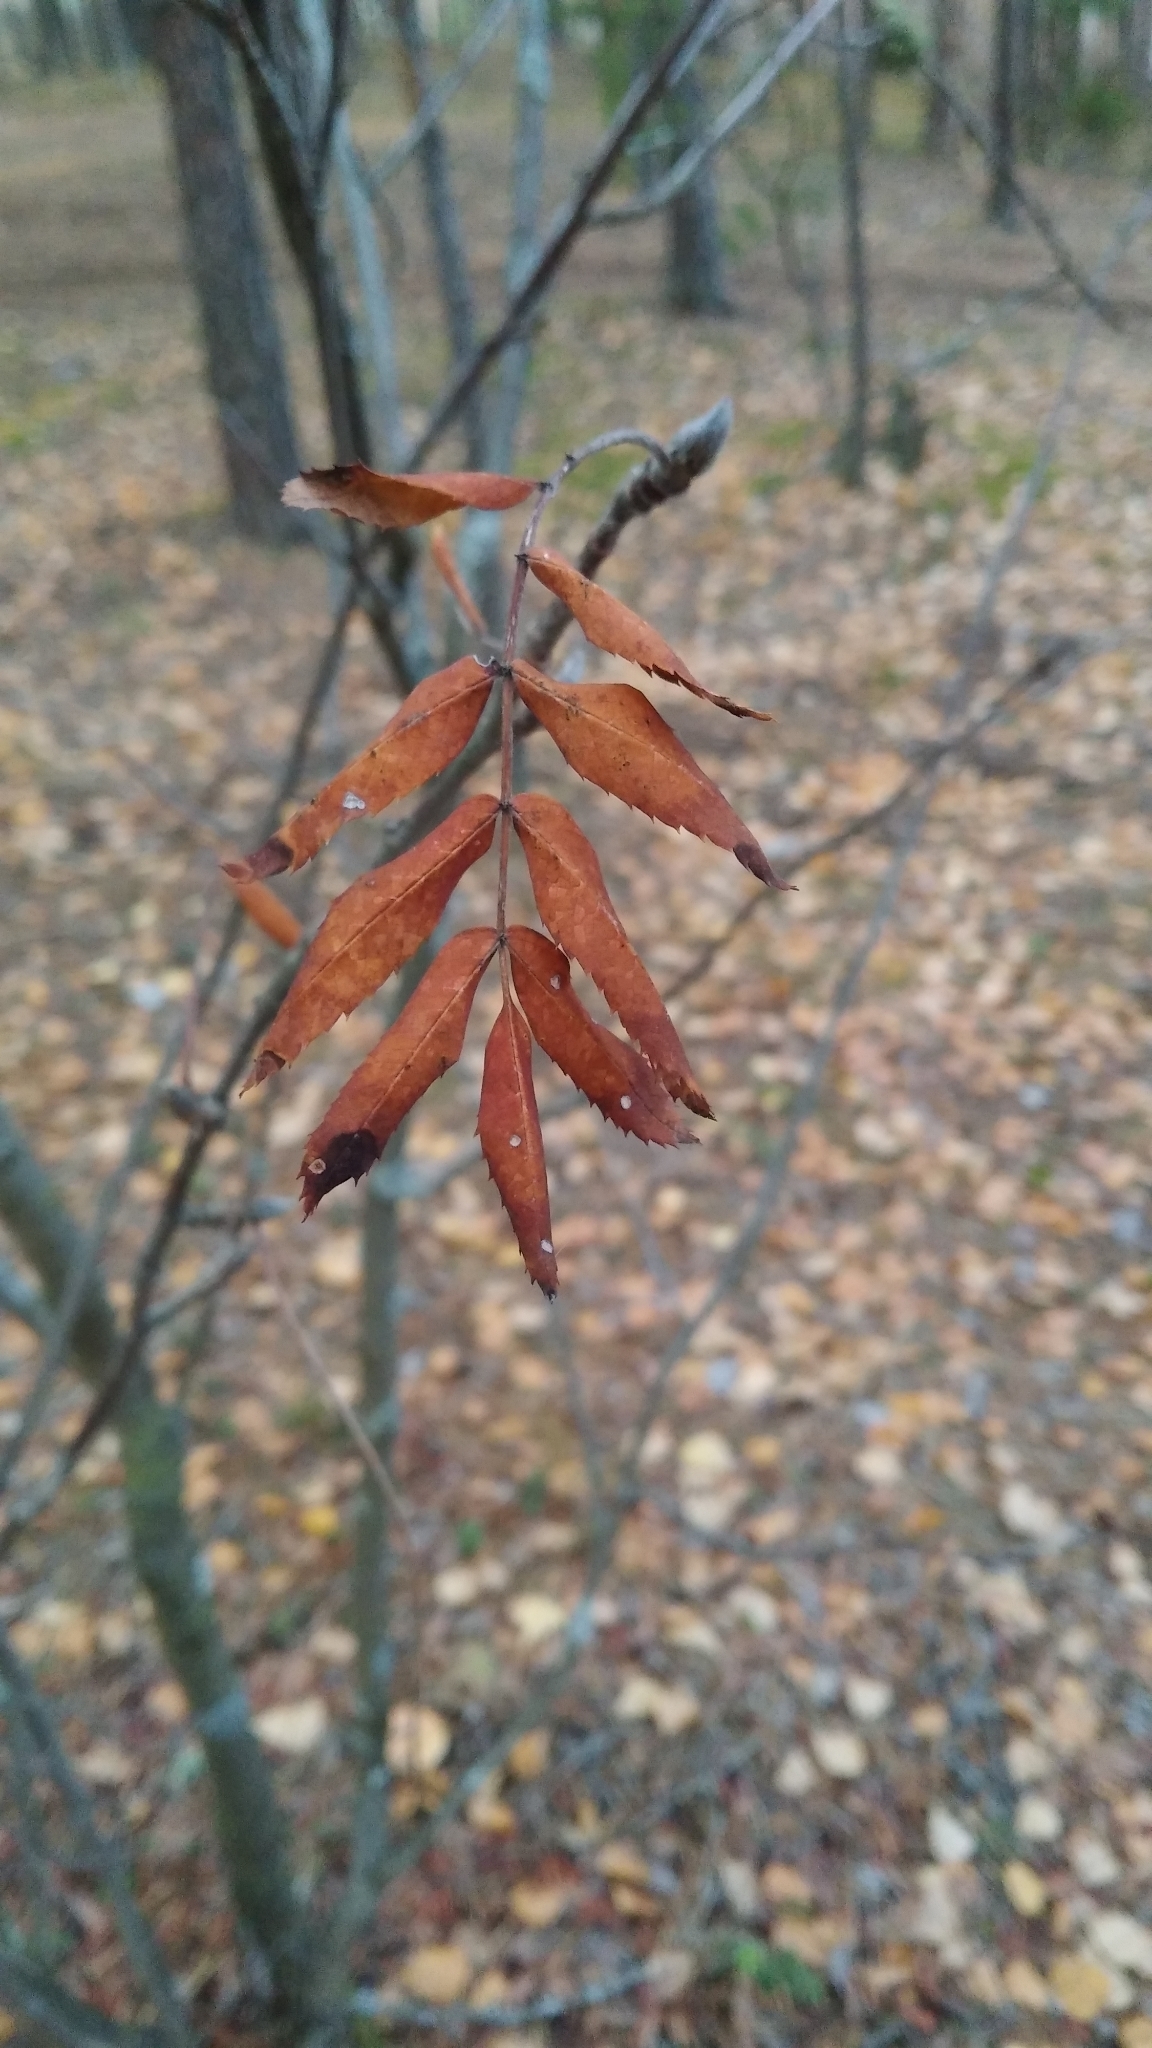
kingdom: Plantae
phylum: Tracheophyta
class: Magnoliopsida
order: Rosales
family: Rosaceae
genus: Sorbus
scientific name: Sorbus aucuparia
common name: Rowan
